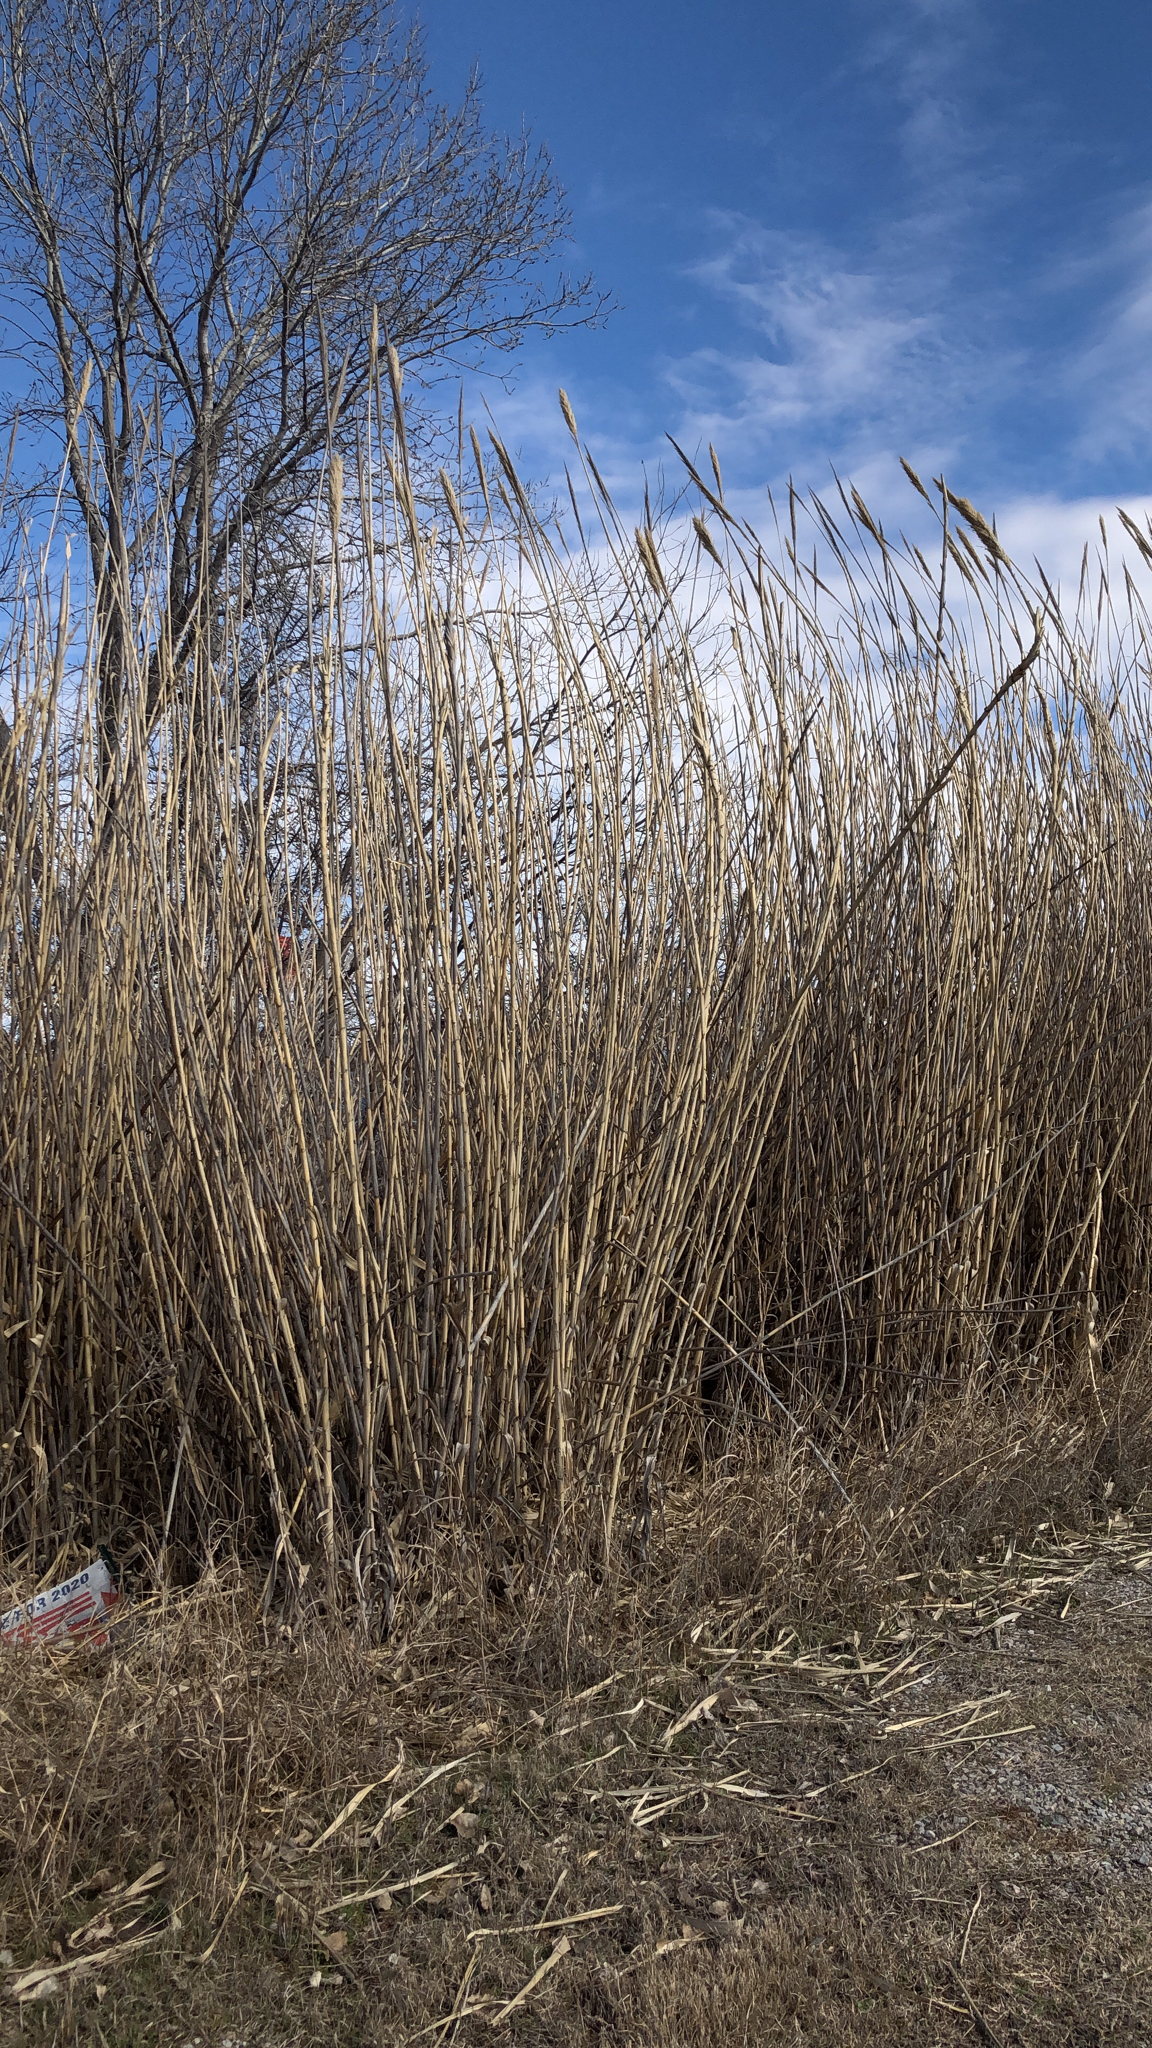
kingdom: Plantae
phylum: Tracheophyta
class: Liliopsida
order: Poales
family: Poaceae
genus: Arundo
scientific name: Arundo donax
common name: Giant reed
